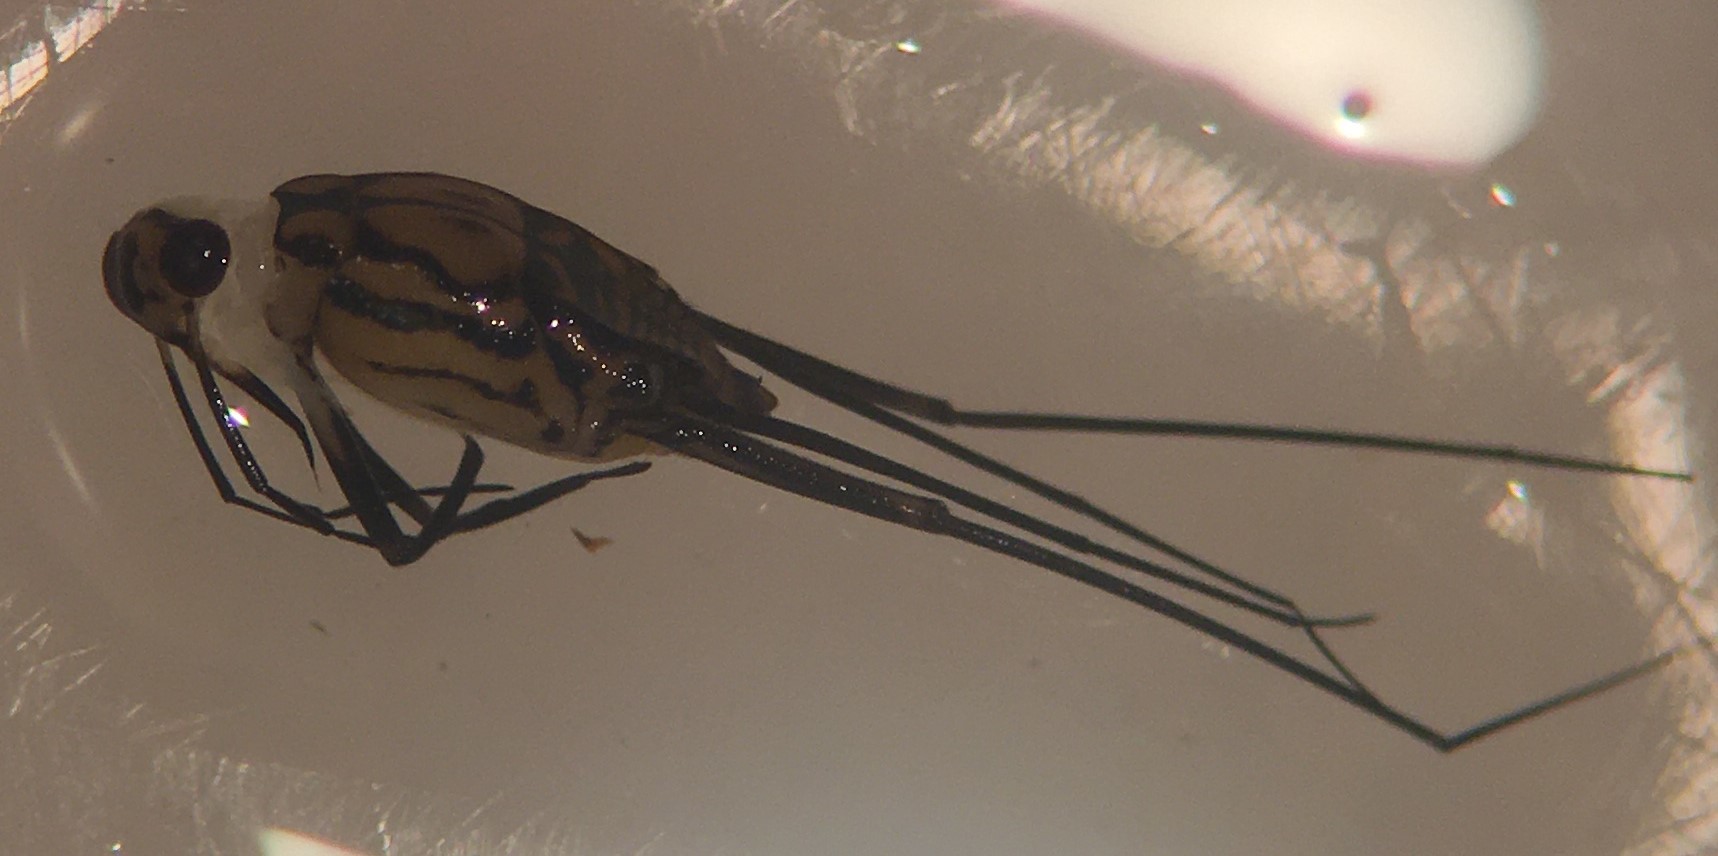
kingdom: Animalia
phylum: Arthropoda
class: Insecta
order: Hemiptera
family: Gerridae
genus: Trepobates
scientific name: Trepobates pictus
